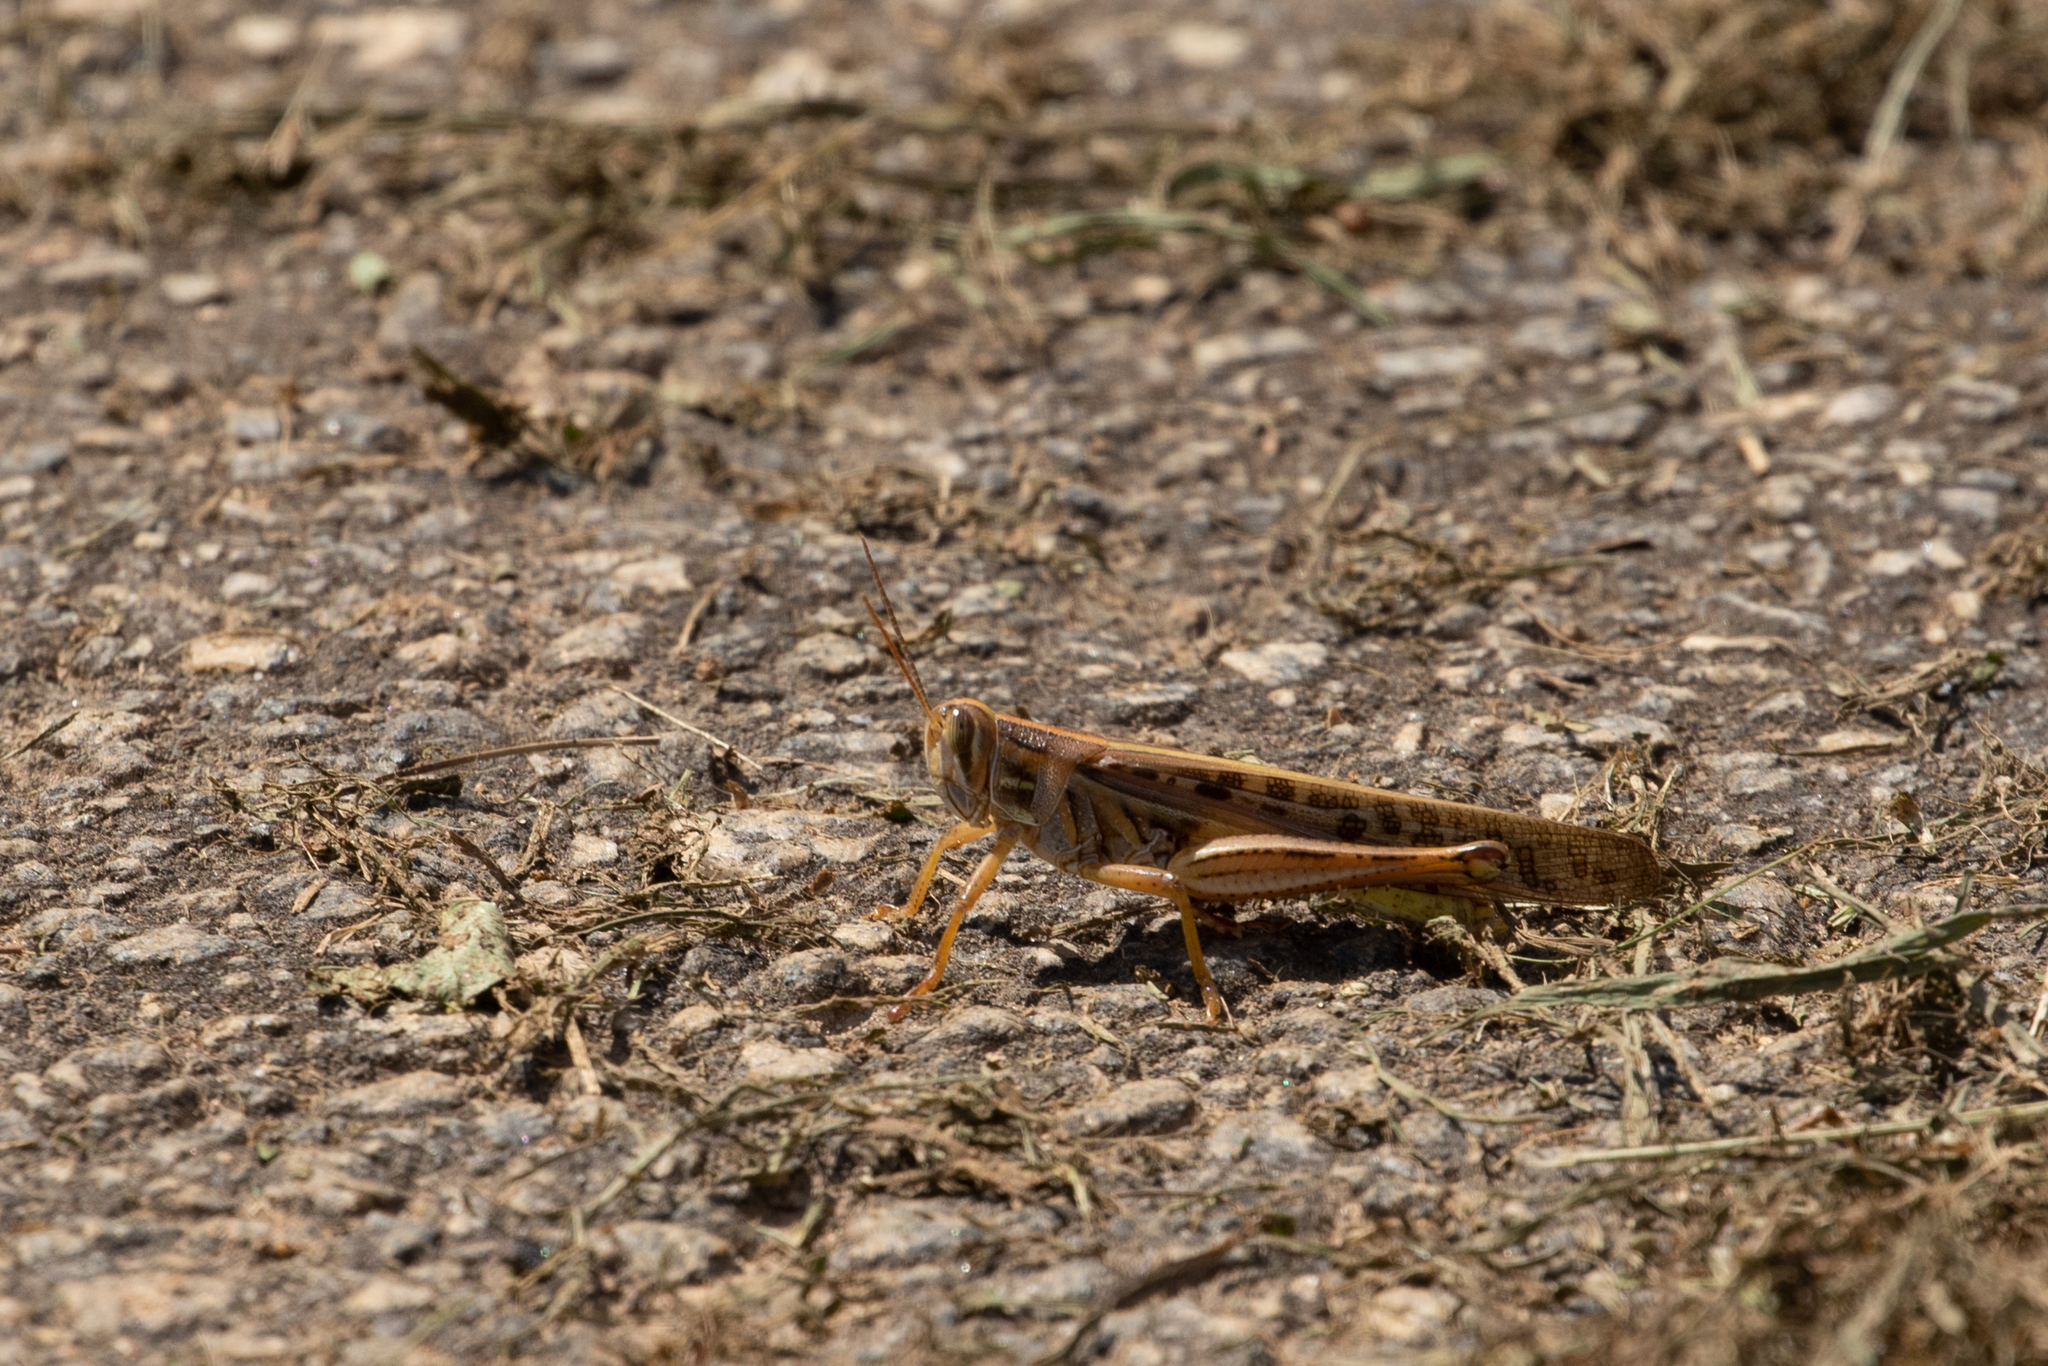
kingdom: Animalia
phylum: Arthropoda
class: Insecta
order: Orthoptera
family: Acrididae
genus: Schistocerca
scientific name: Schistocerca americana
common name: American bird locust
